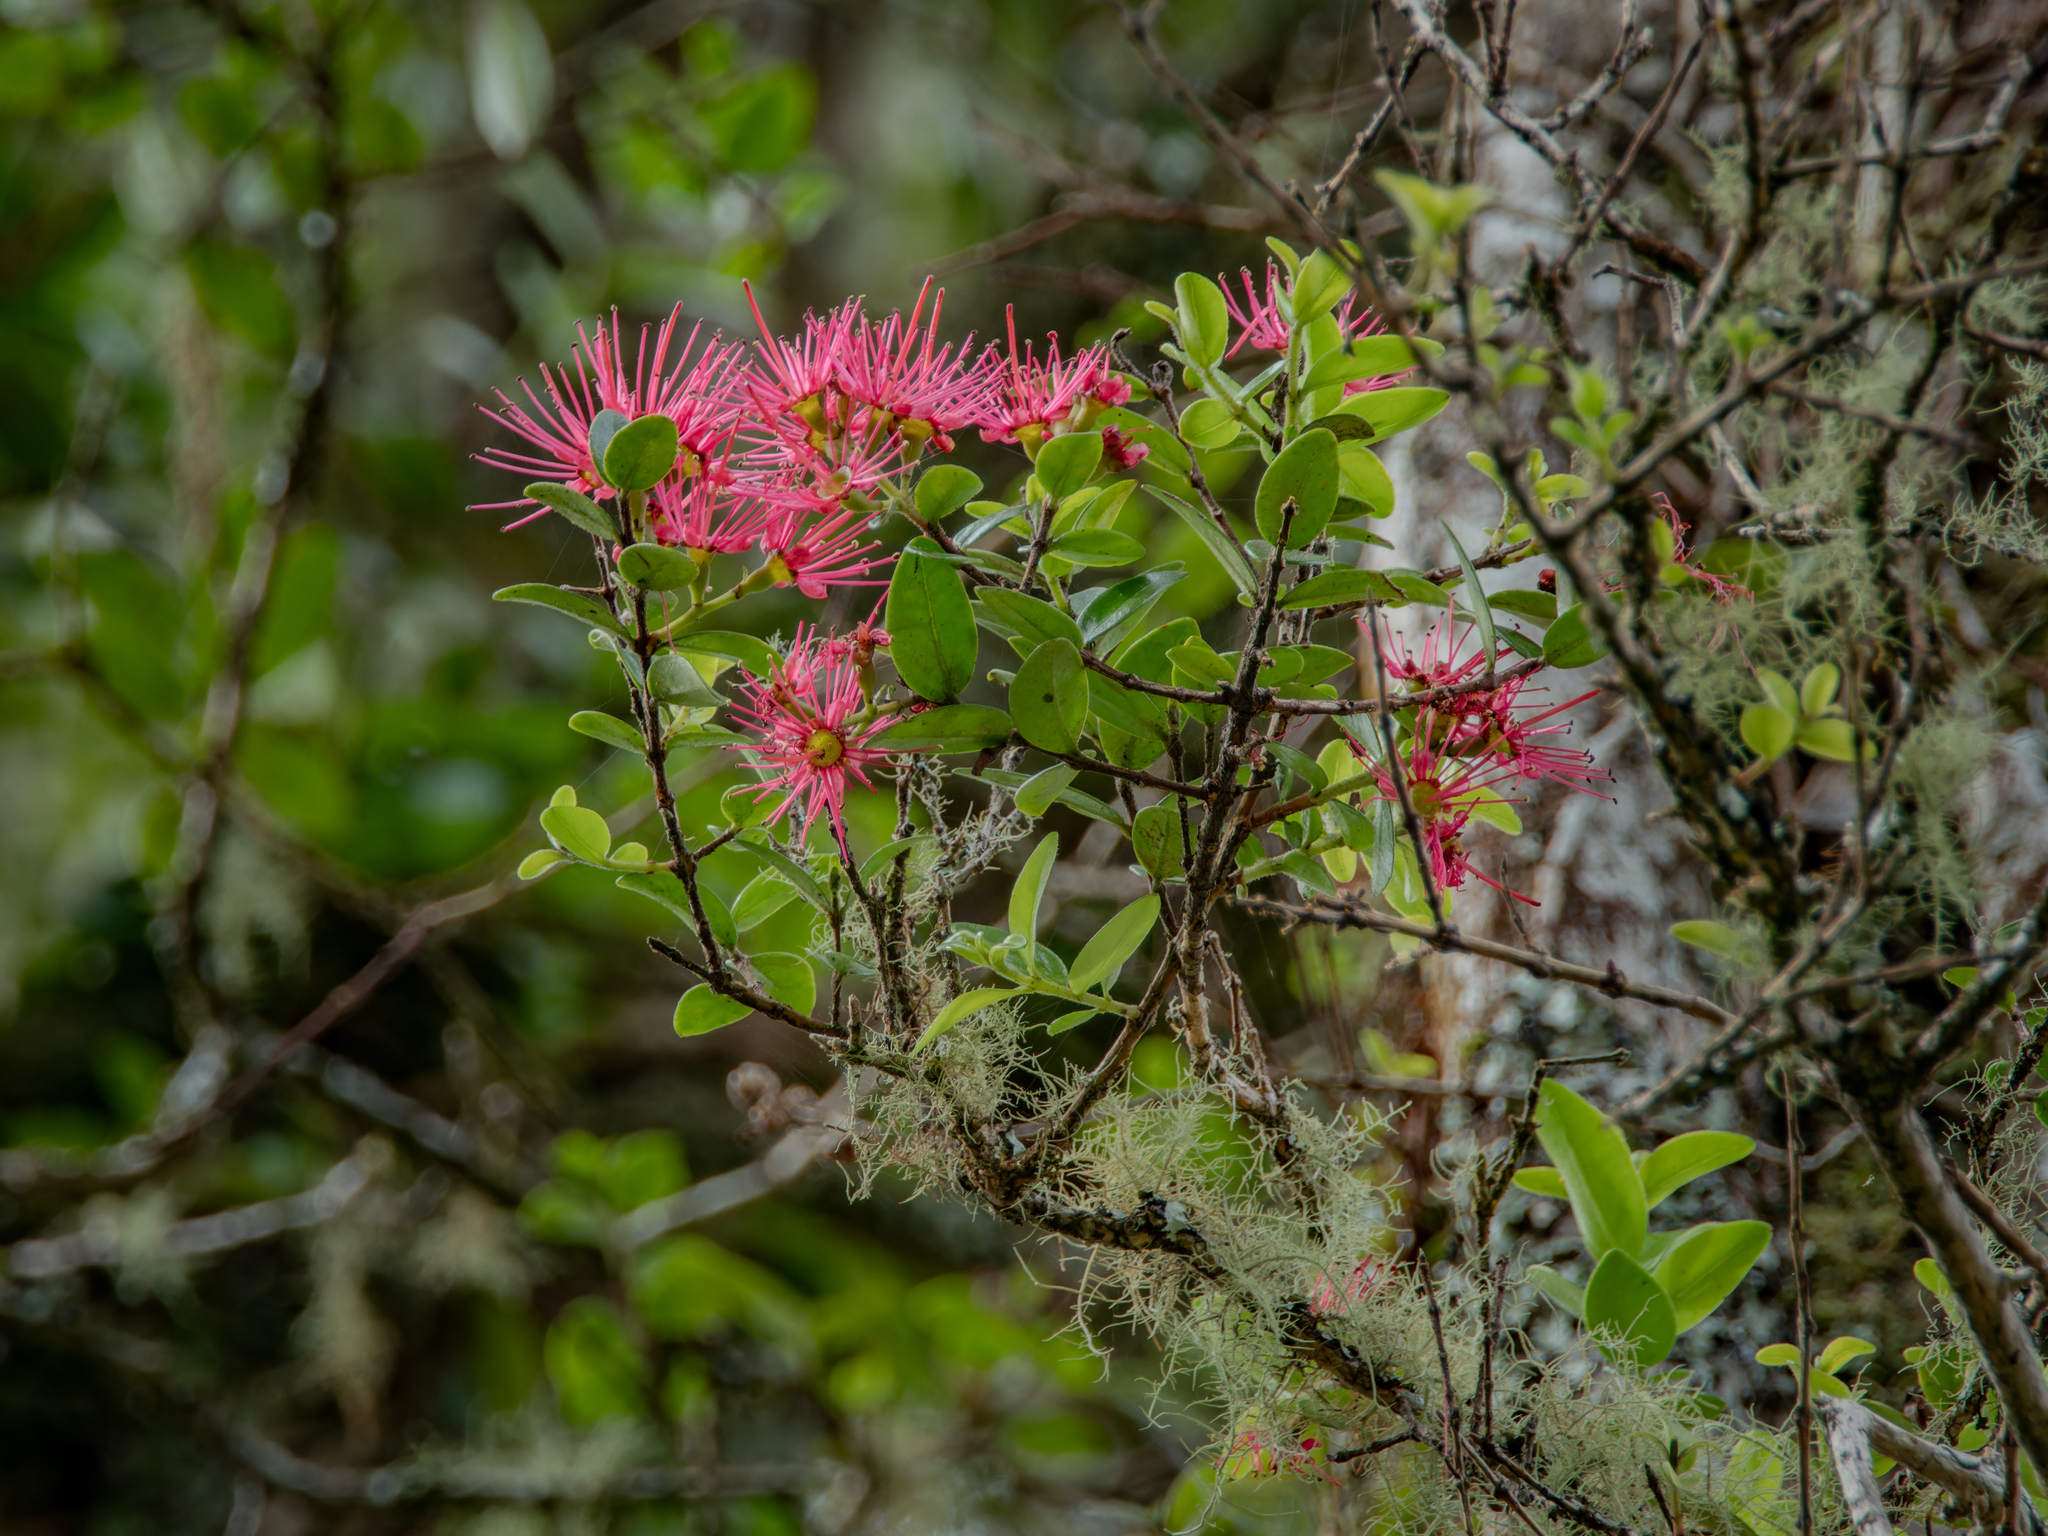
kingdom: Plantae
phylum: Tracheophyta
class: Magnoliopsida
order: Myrtales
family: Myrtaceae
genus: Metrosideros
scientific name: Metrosideros carminea
